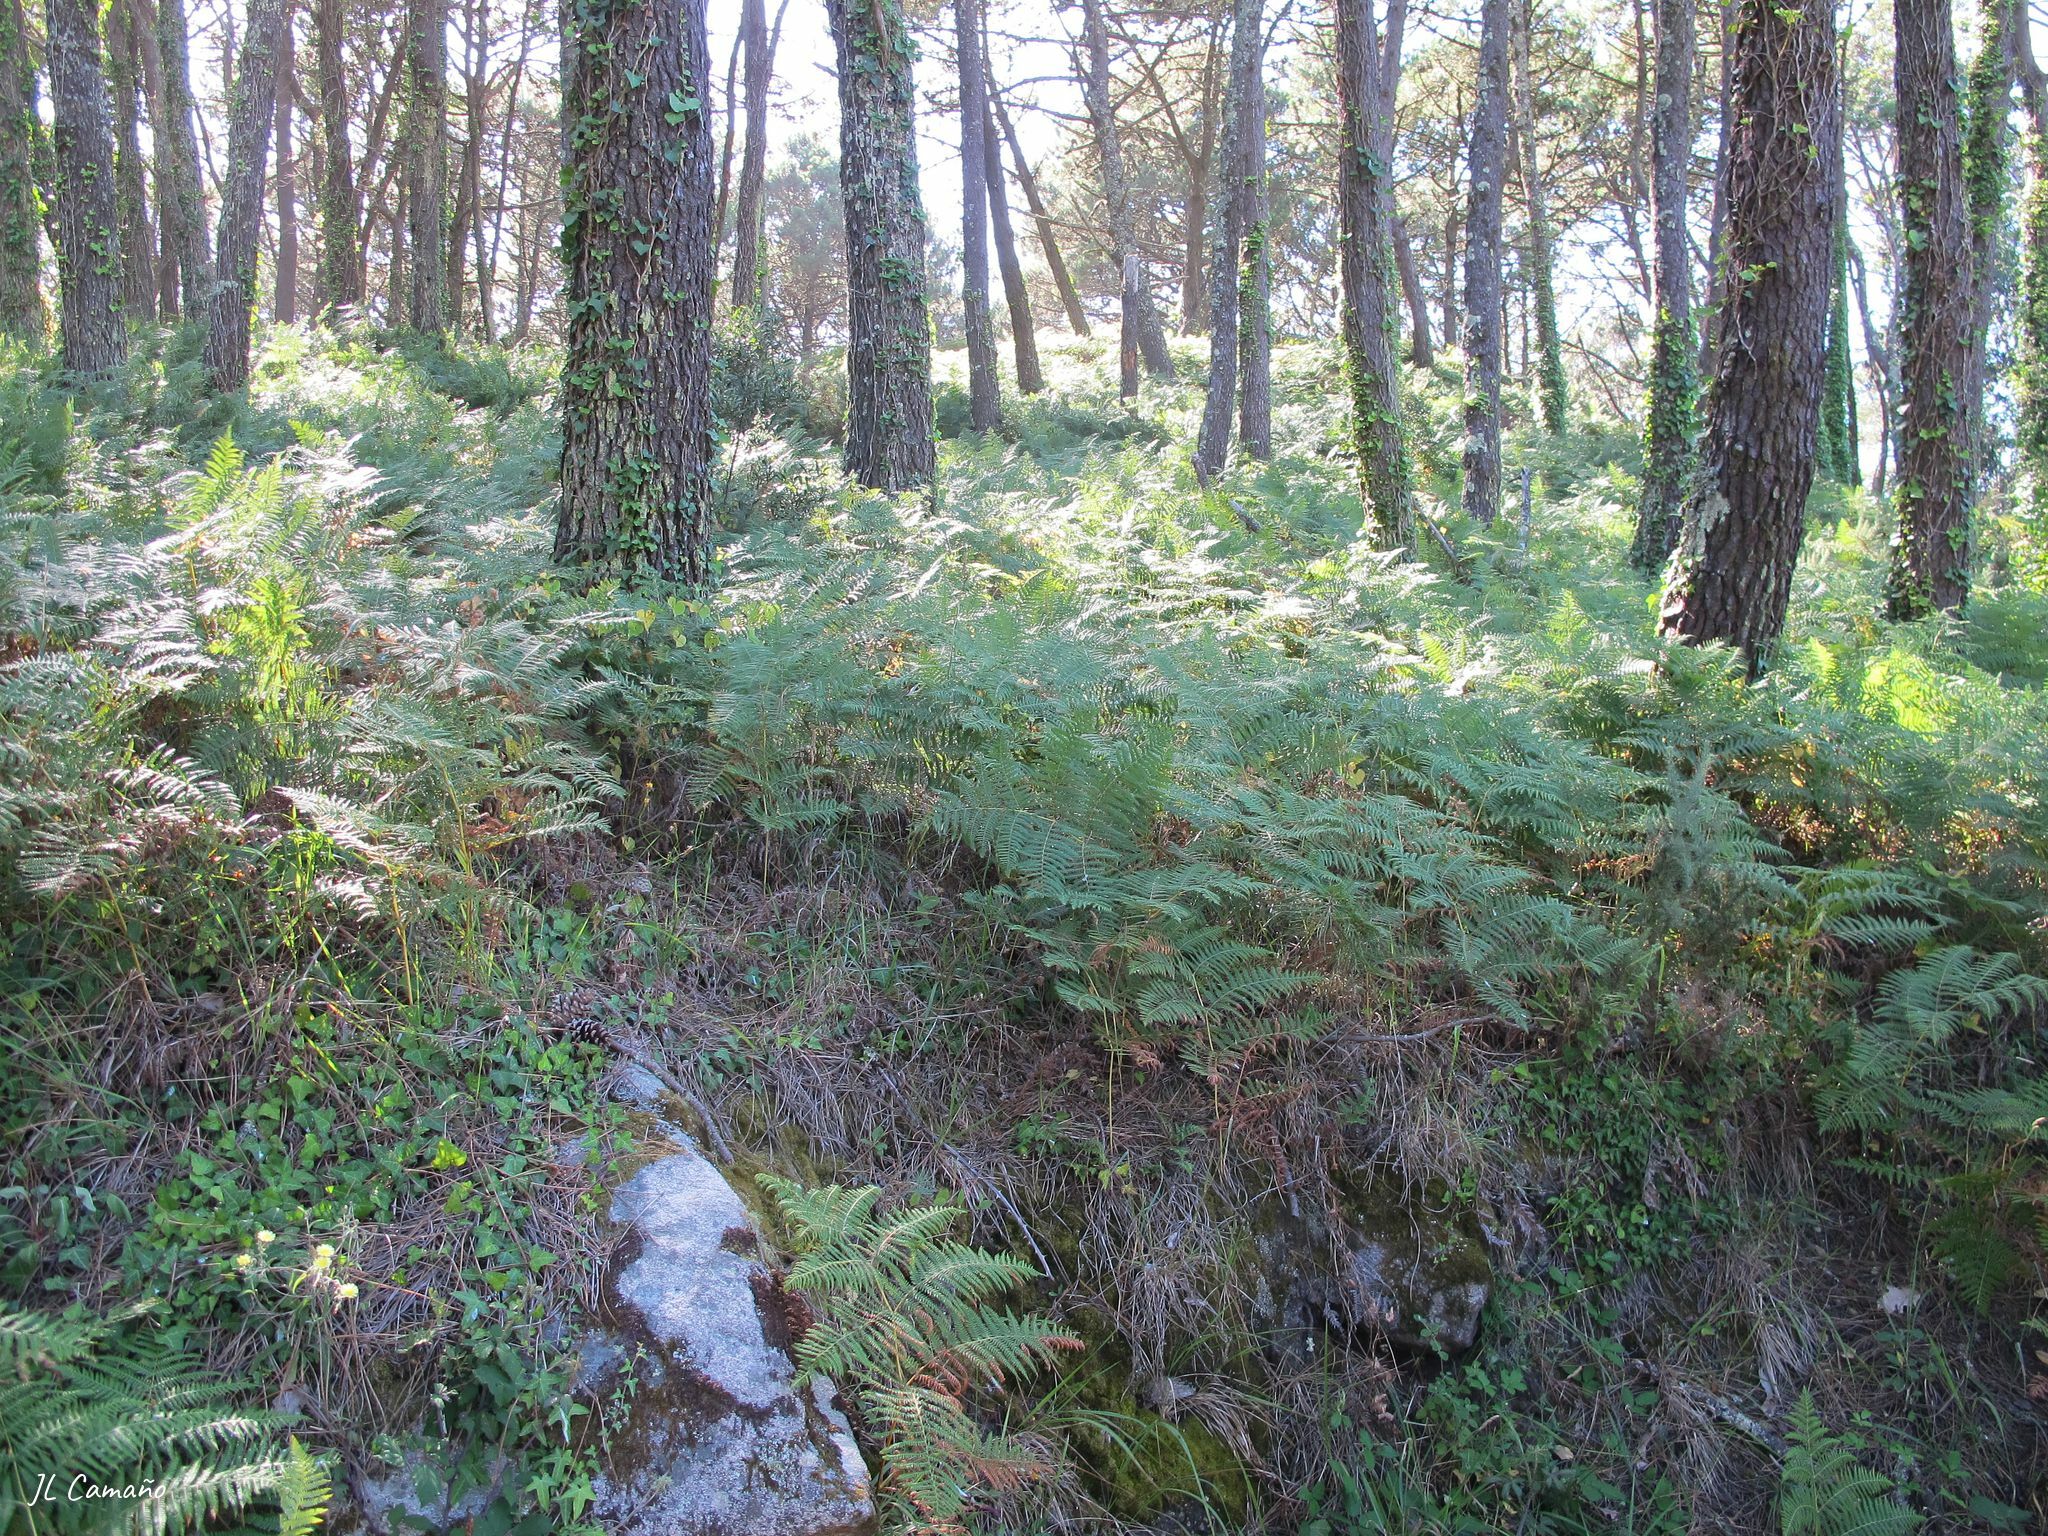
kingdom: Plantae
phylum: Marchantiophyta
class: Jungermanniopsida
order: Porellales
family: Frullaniaceae
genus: Frullania
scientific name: Frullania tamarisci
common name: Tamarisk scalewort
